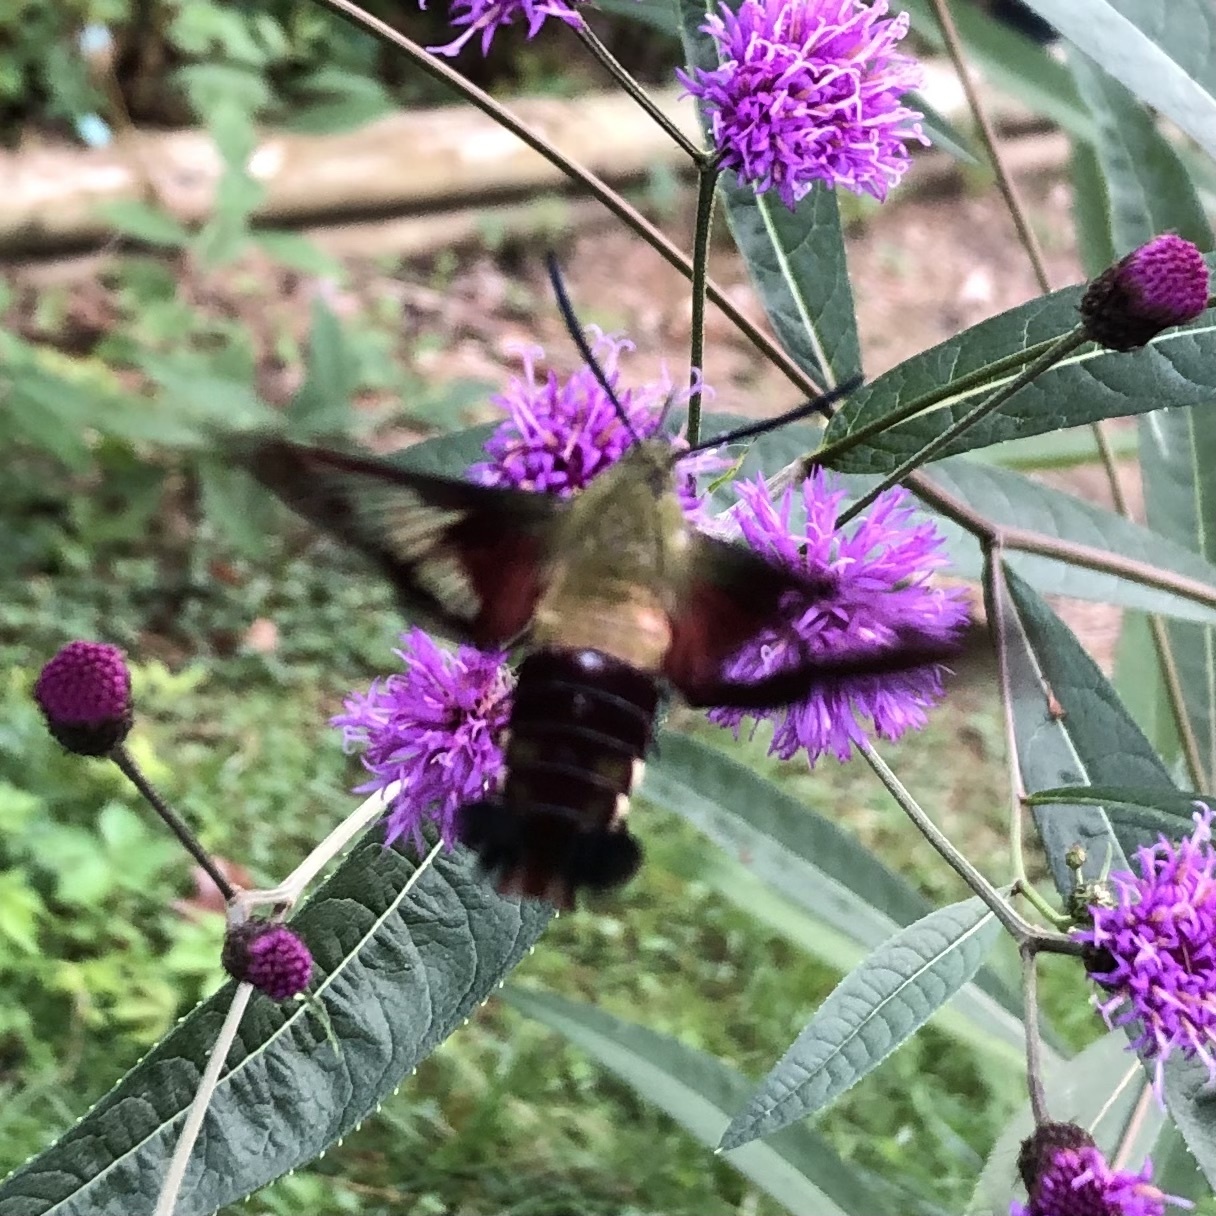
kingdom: Animalia
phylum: Arthropoda
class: Insecta
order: Lepidoptera
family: Sphingidae
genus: Hemaris
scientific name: Hemaris thysbe
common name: Common clear-wing
